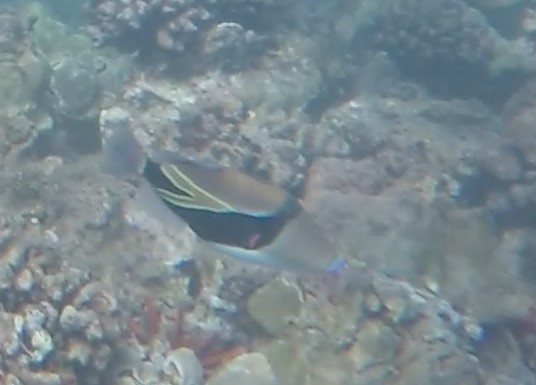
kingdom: Animalia
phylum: Chordata
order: Tetraodontiformes
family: Balistidae
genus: Rhinecanthus
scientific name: Rhinecanthus rectangulus
